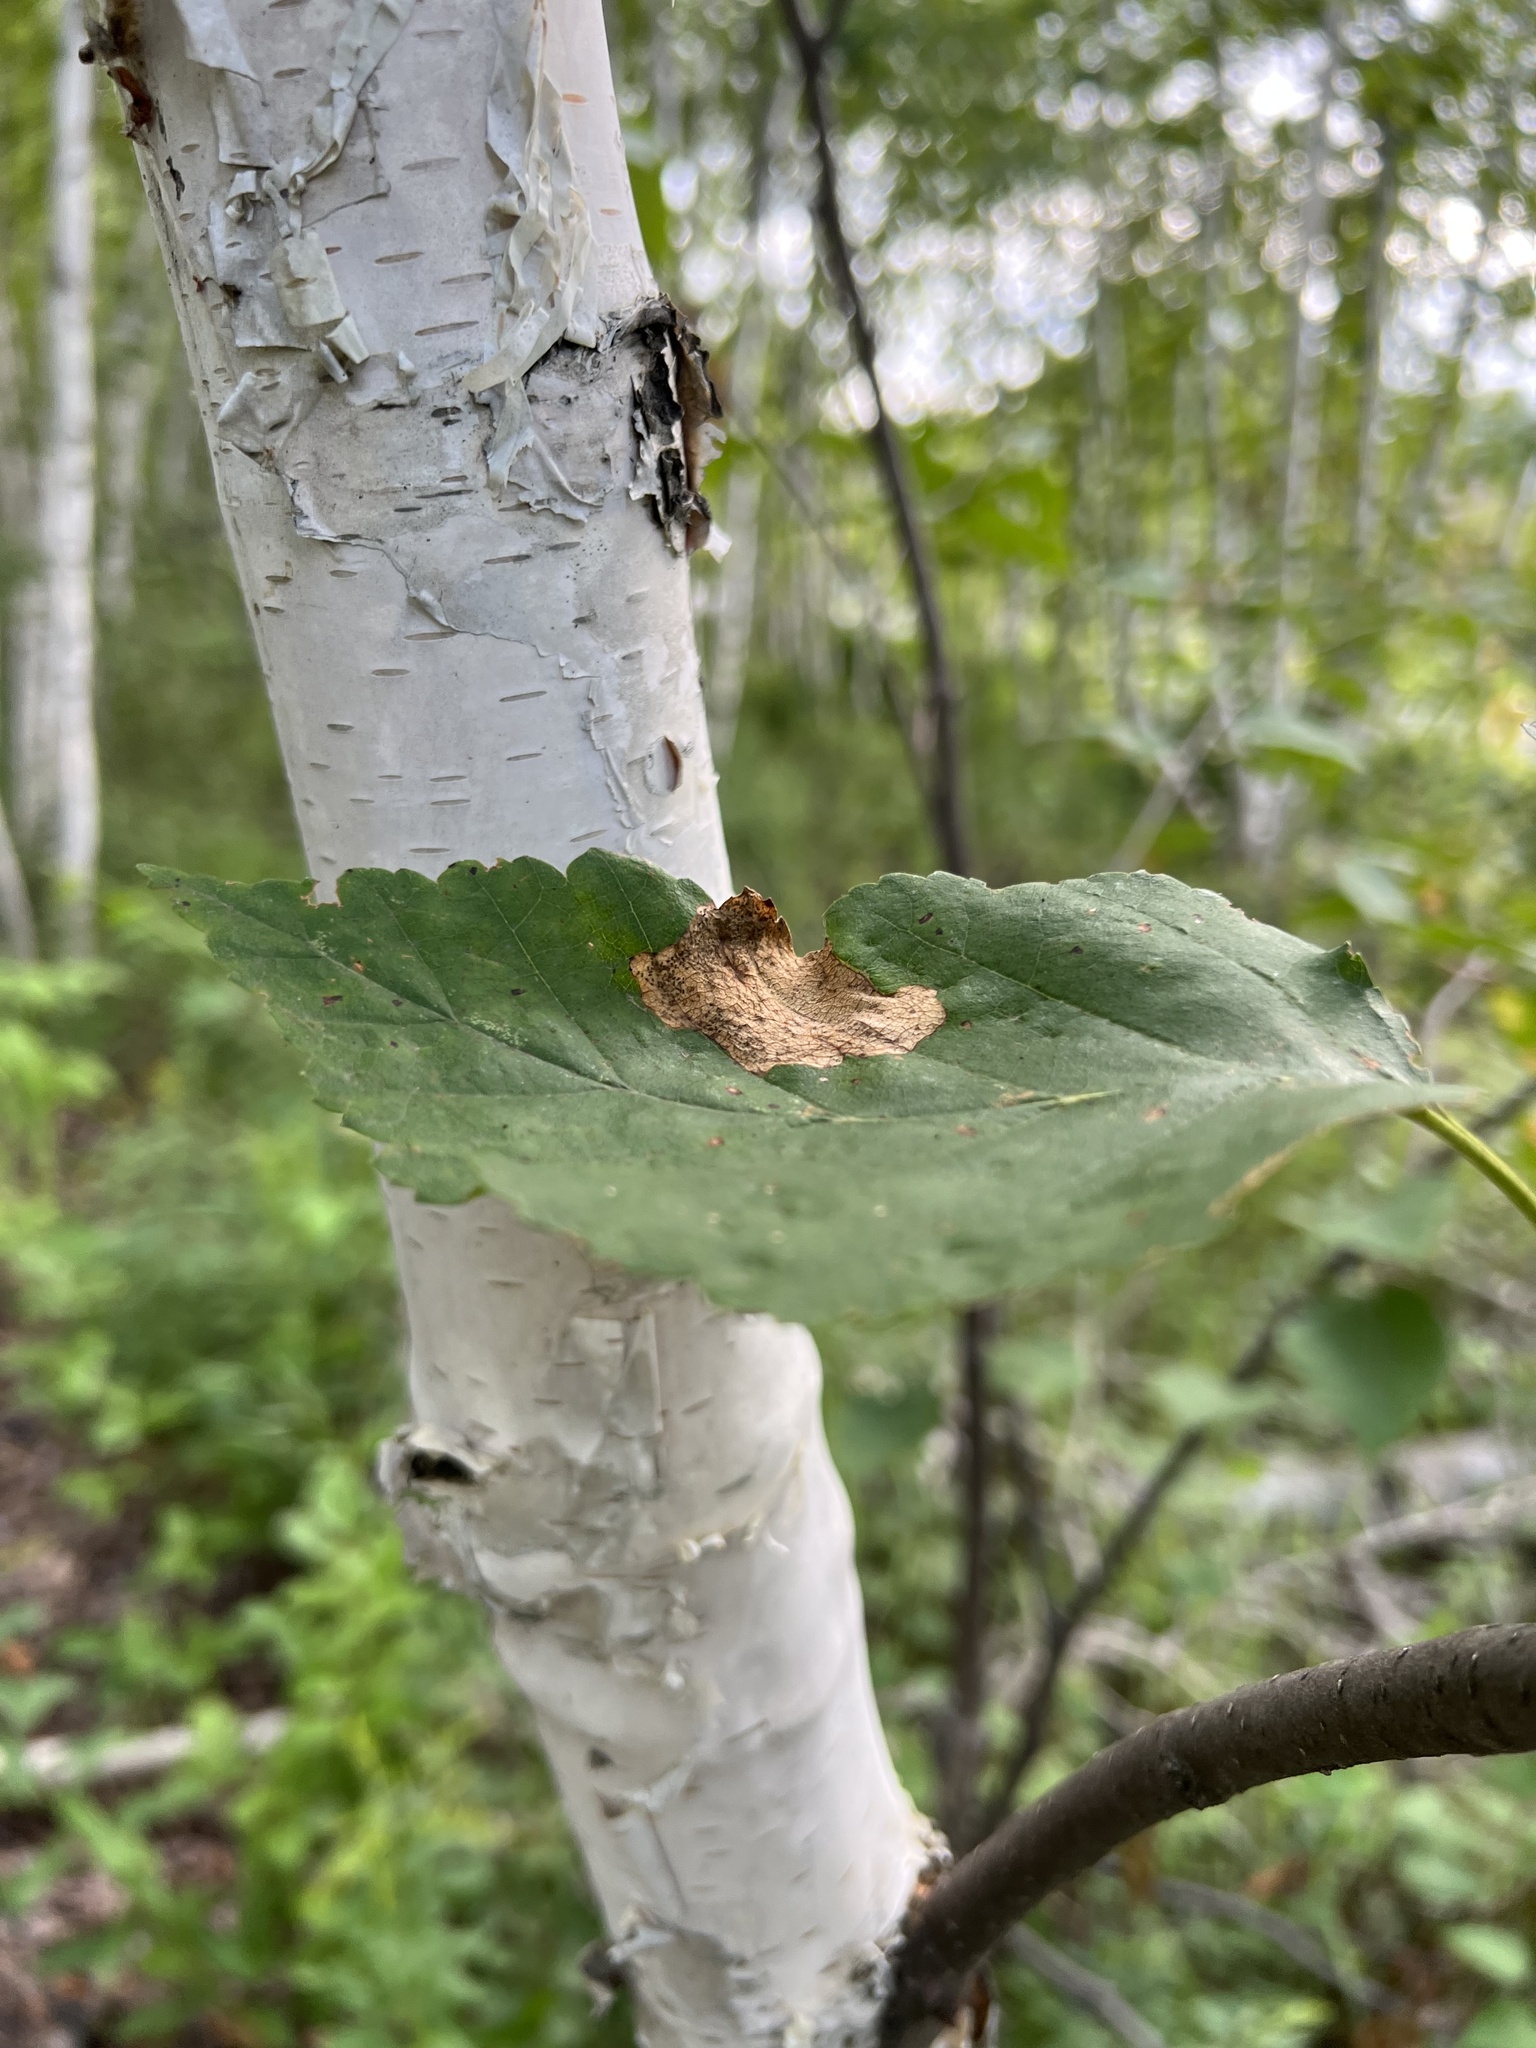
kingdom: Plantae
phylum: Tracheophyta
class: Magnoliopsida
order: Fagales
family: Betulaceae
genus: Betula
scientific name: Betula papyrifera
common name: Paper birch
